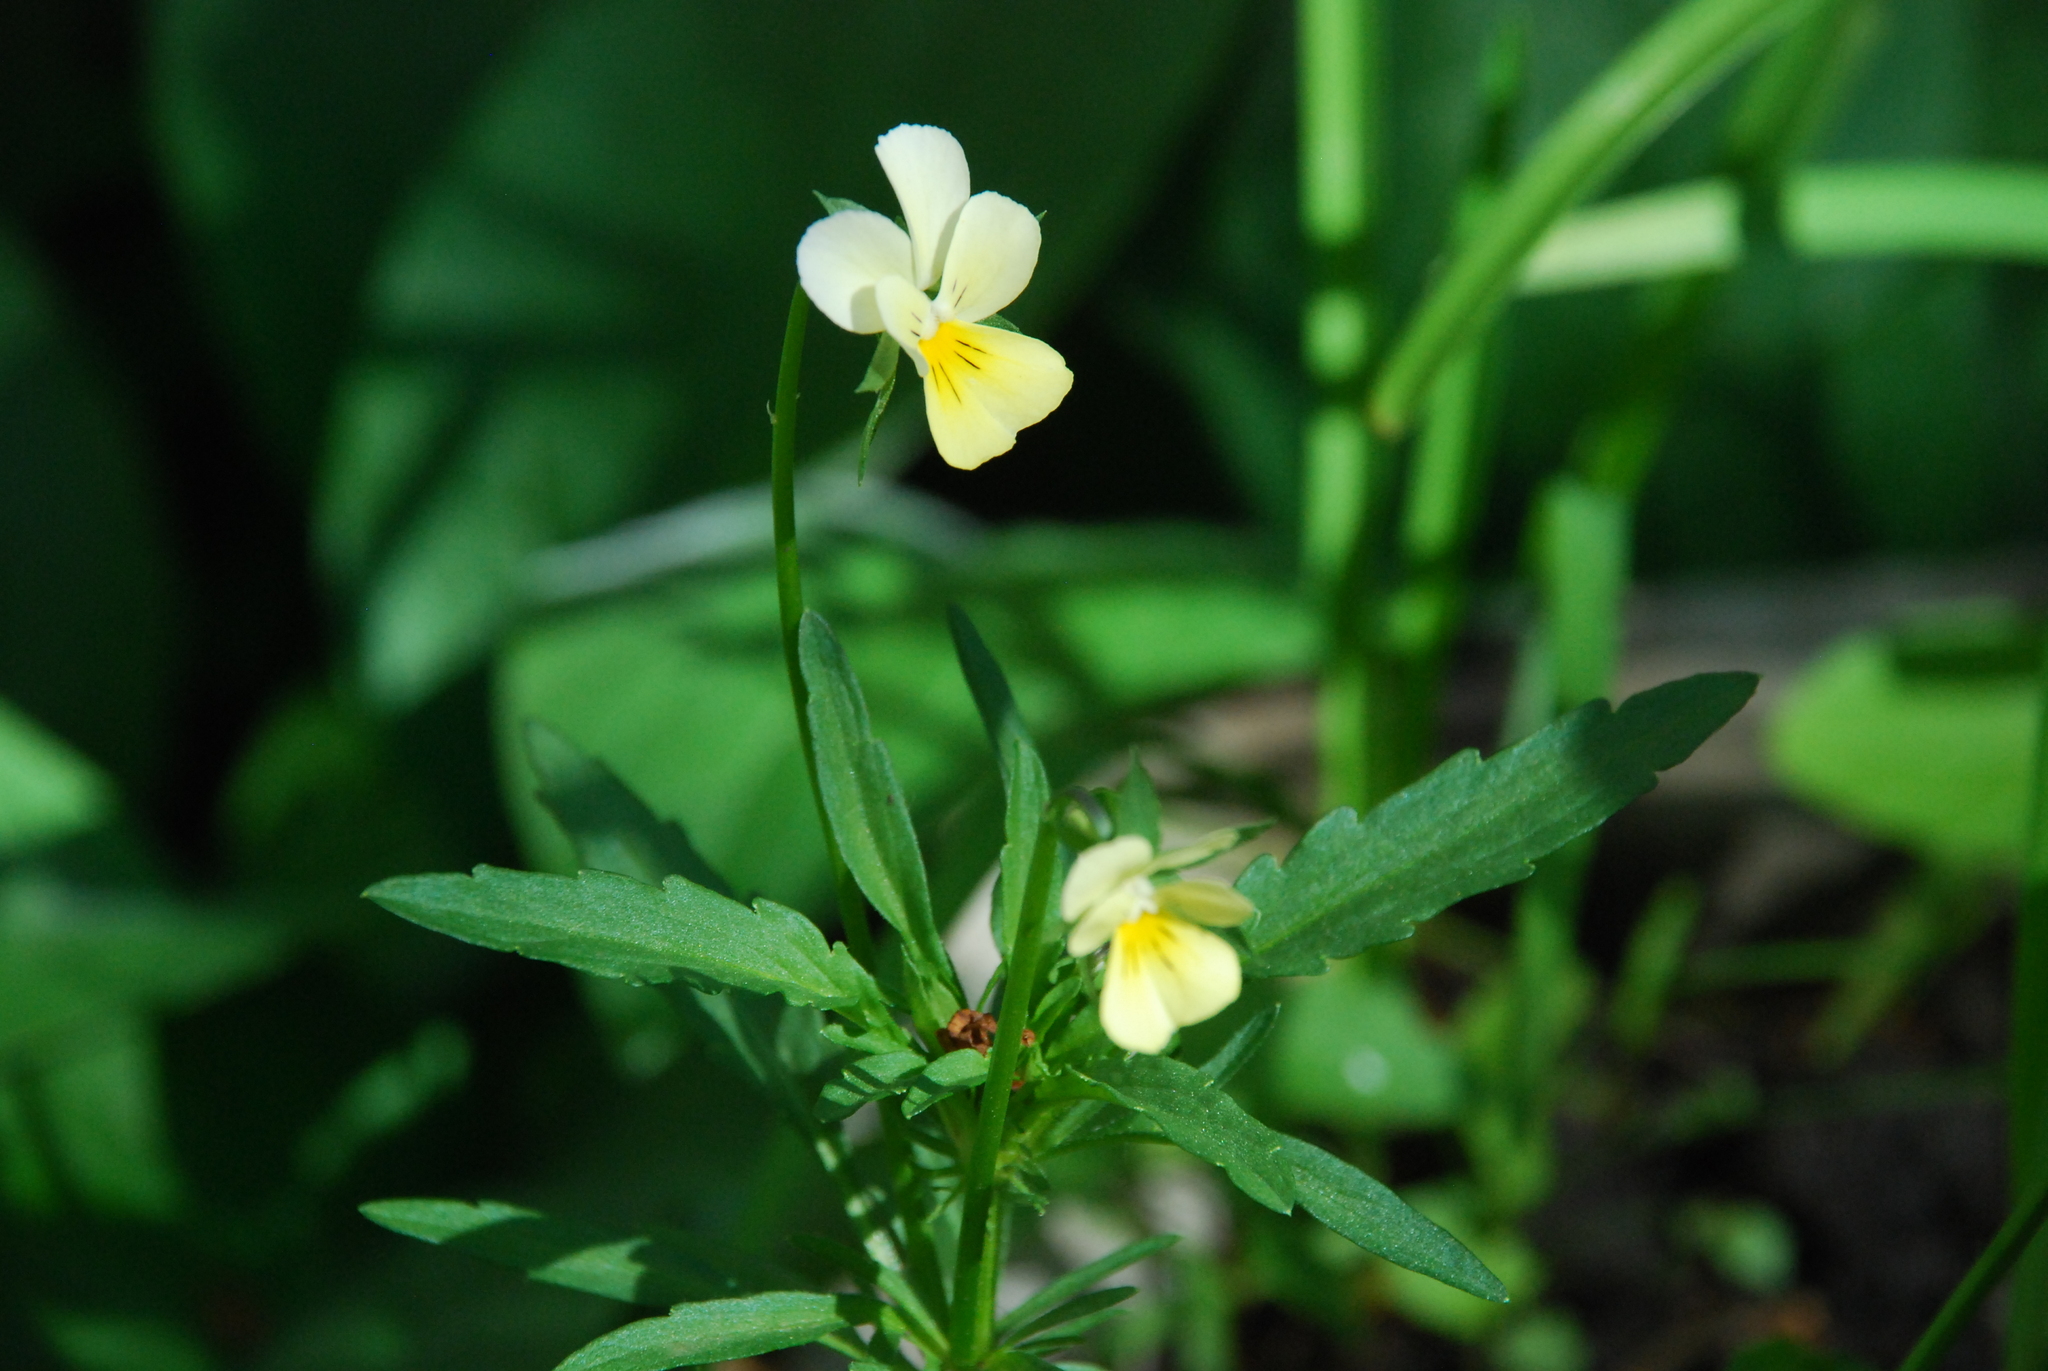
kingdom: Plantae
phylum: Tracheophyta
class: Magnoliopsida
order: Malpighiales
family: Violaceae
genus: Viola
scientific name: Viola arvensis
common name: Field pansy
